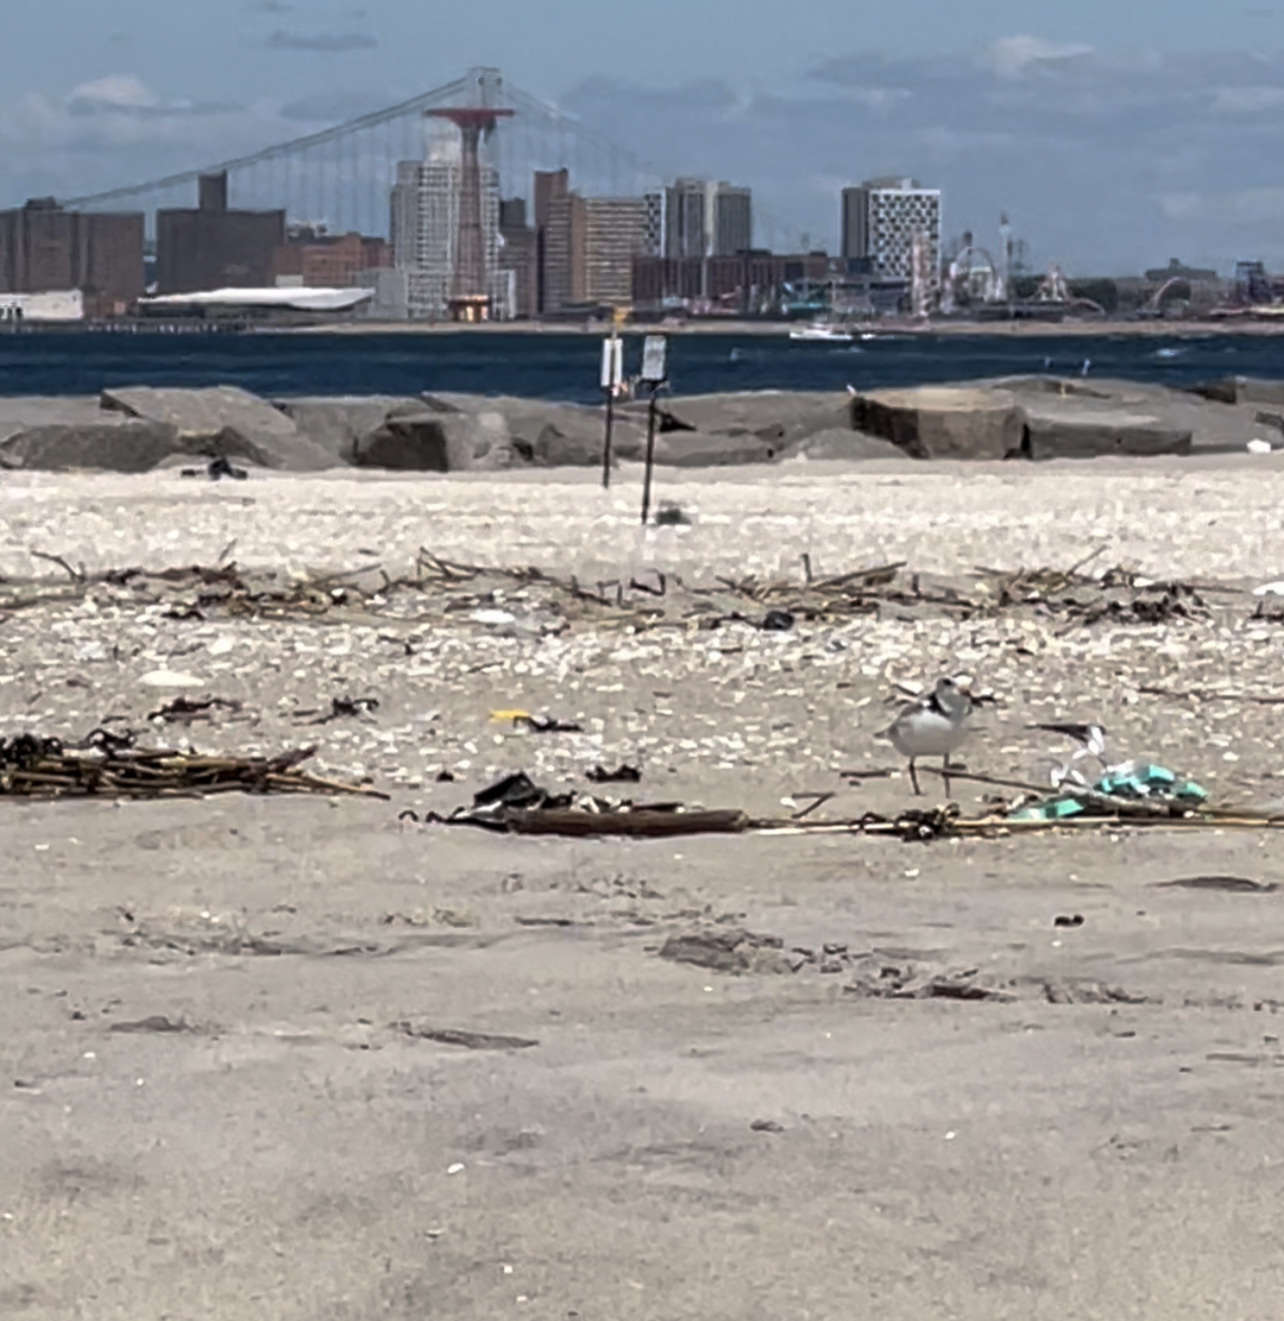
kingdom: Animalia
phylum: Chordata
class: Aves
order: Charadriiformes
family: Charadriidae
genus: Charadrius
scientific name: Charadrius melodus
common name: Piping plover
